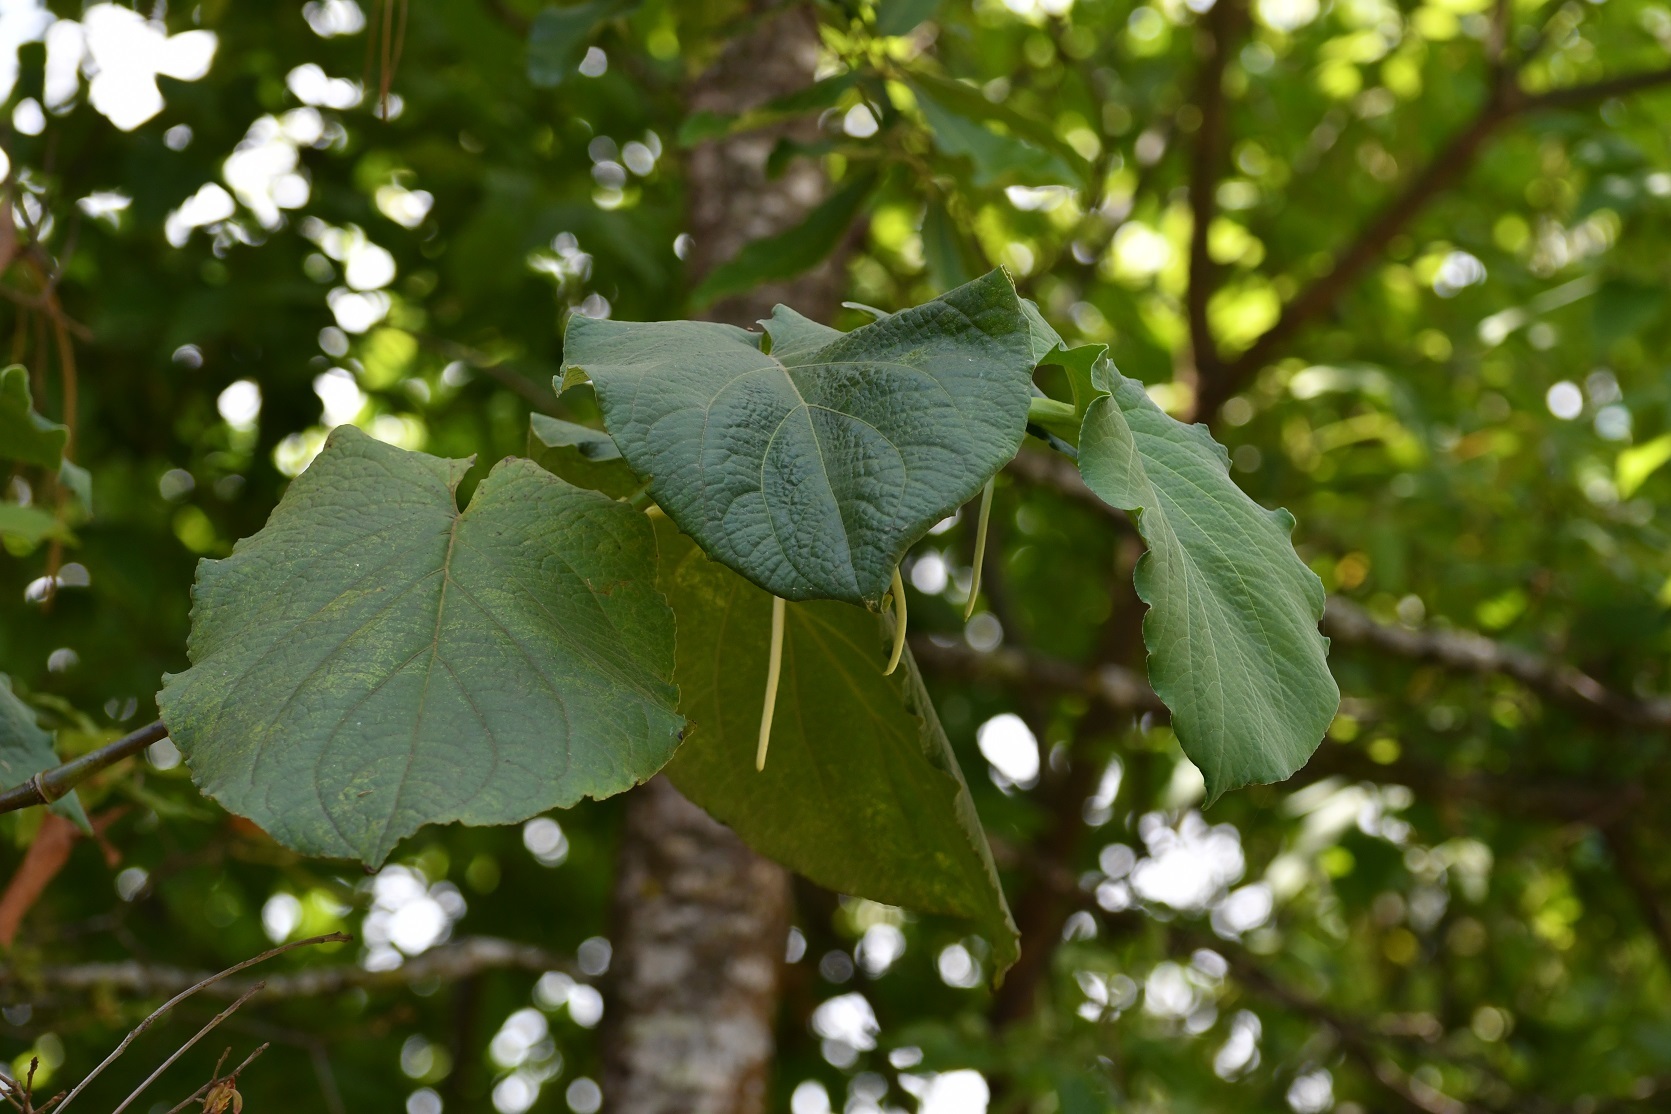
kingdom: Plantae
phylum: Tracheophyta
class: Magnoliopsida
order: Piperales
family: Piperaceae
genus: Piper
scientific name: Piper auritum
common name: Vera cruz pepper
